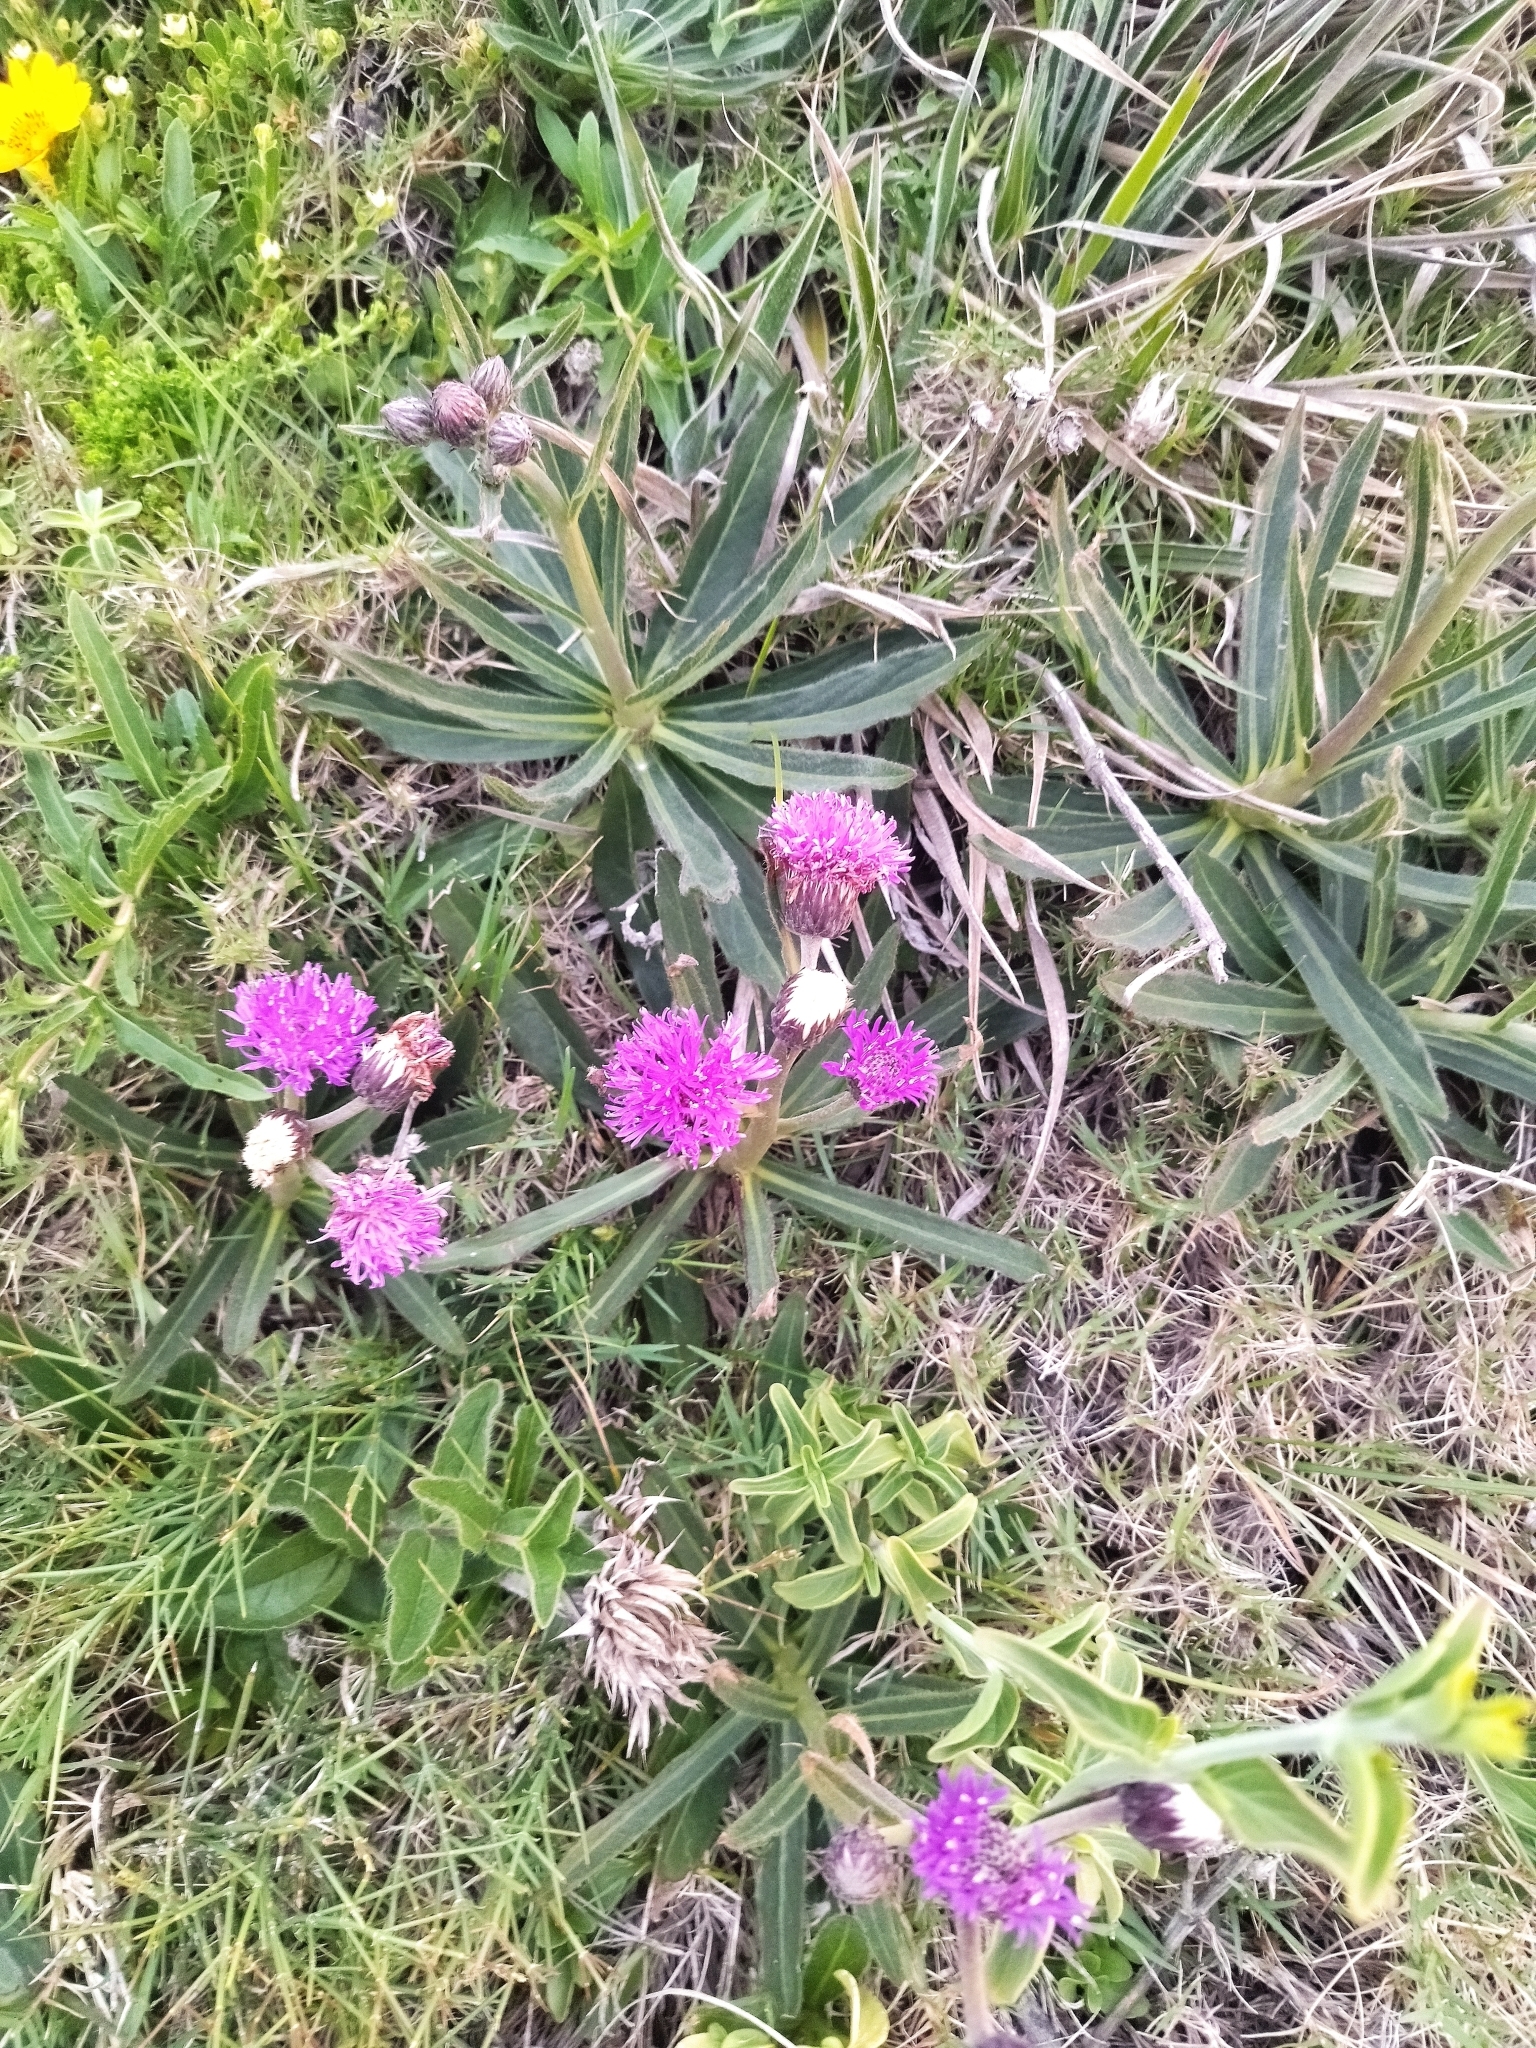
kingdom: Plantae
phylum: Tracheophyta
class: Magnoliopsida
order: Asterales
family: Asteraceae
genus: Chrysolaena
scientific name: Chrysolaena flexuosa
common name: Zig-zag vernonia
